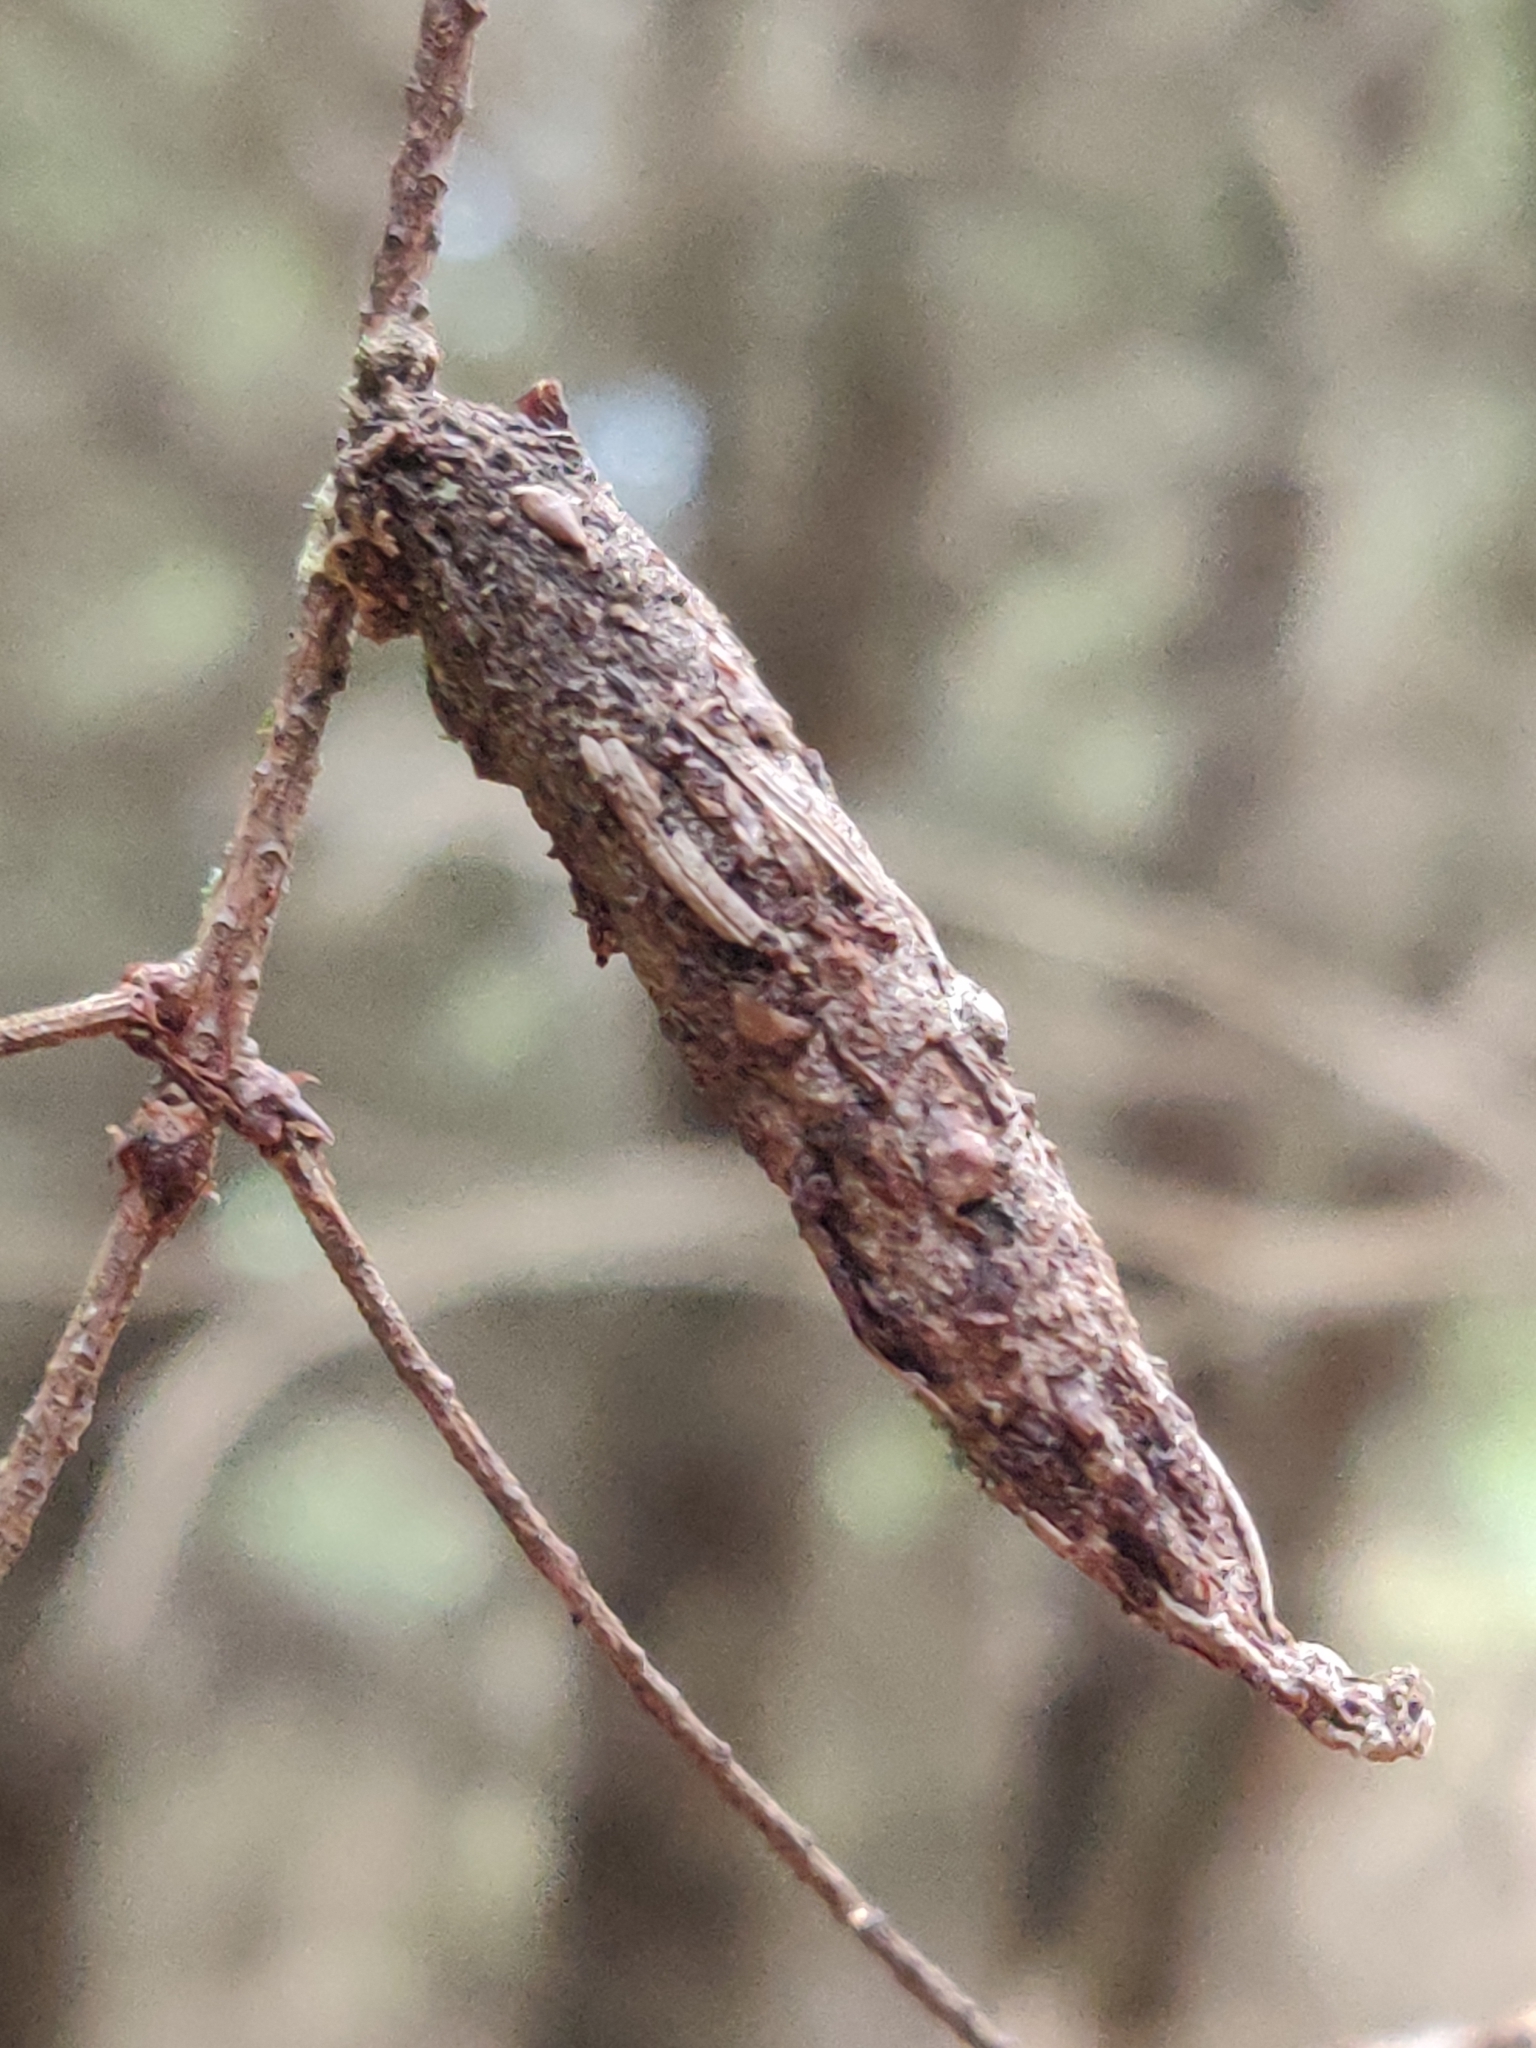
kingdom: Animalia
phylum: Arthropoda
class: Insecta
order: Lepidoptera
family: Psychidae
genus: Liothula
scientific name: Liothula omnivora
